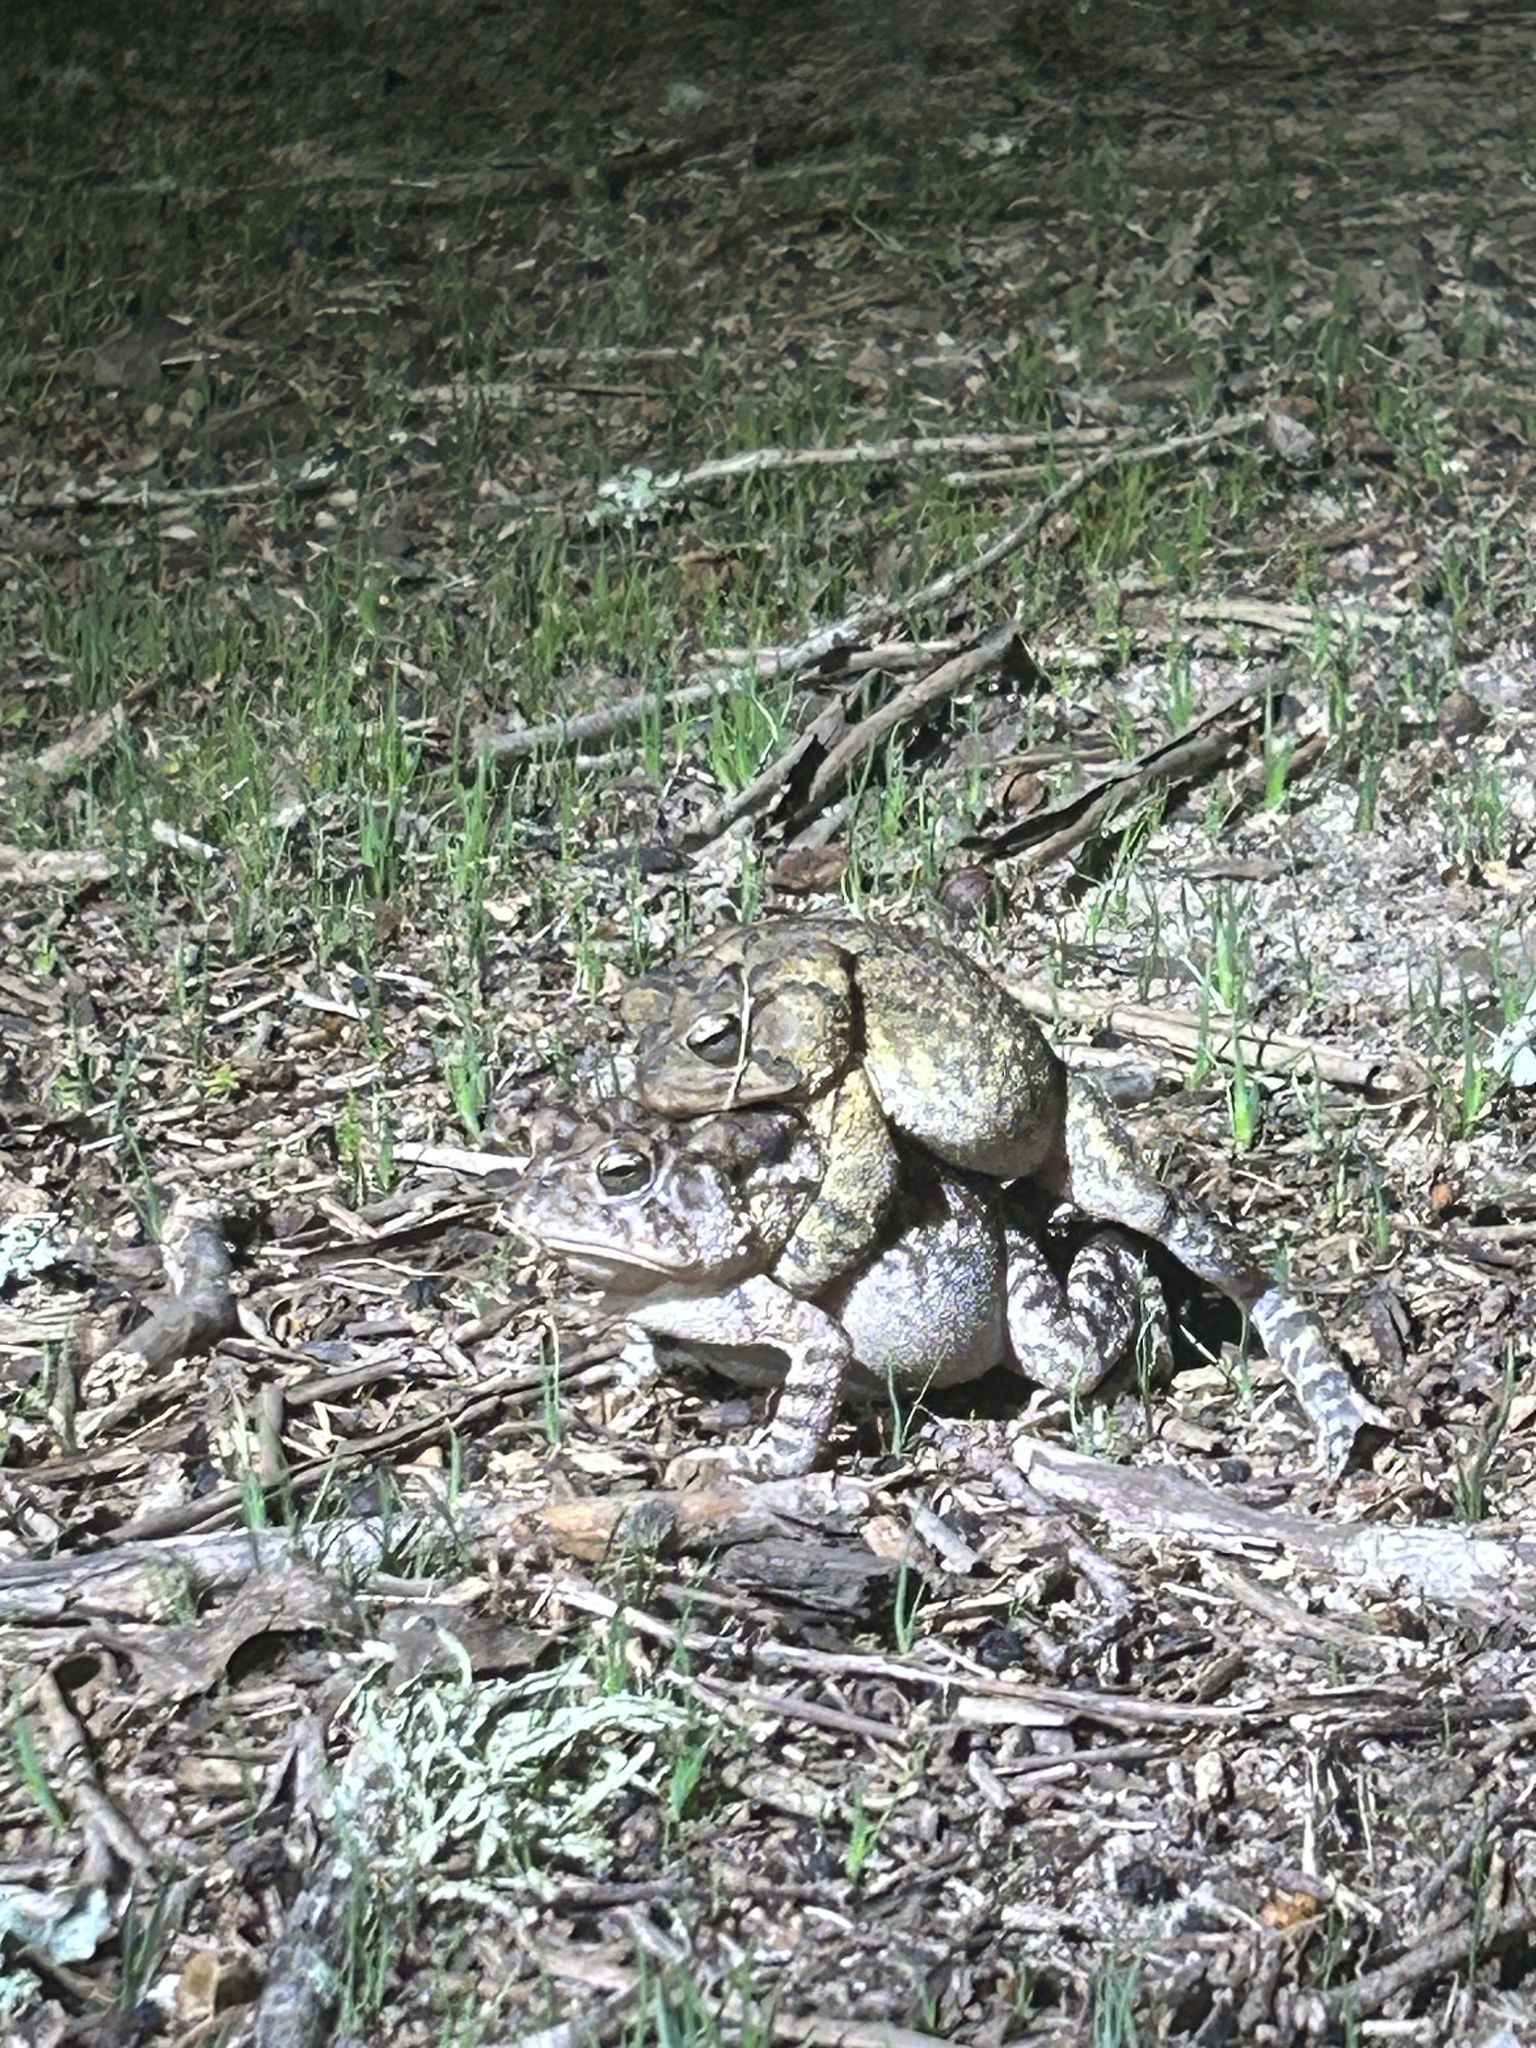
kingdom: Animalia
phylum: Chordata
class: Amphibia
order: Anura
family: Bufonidae
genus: Anaxyrus
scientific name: Anaxyrus terrestris
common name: Southern toad
